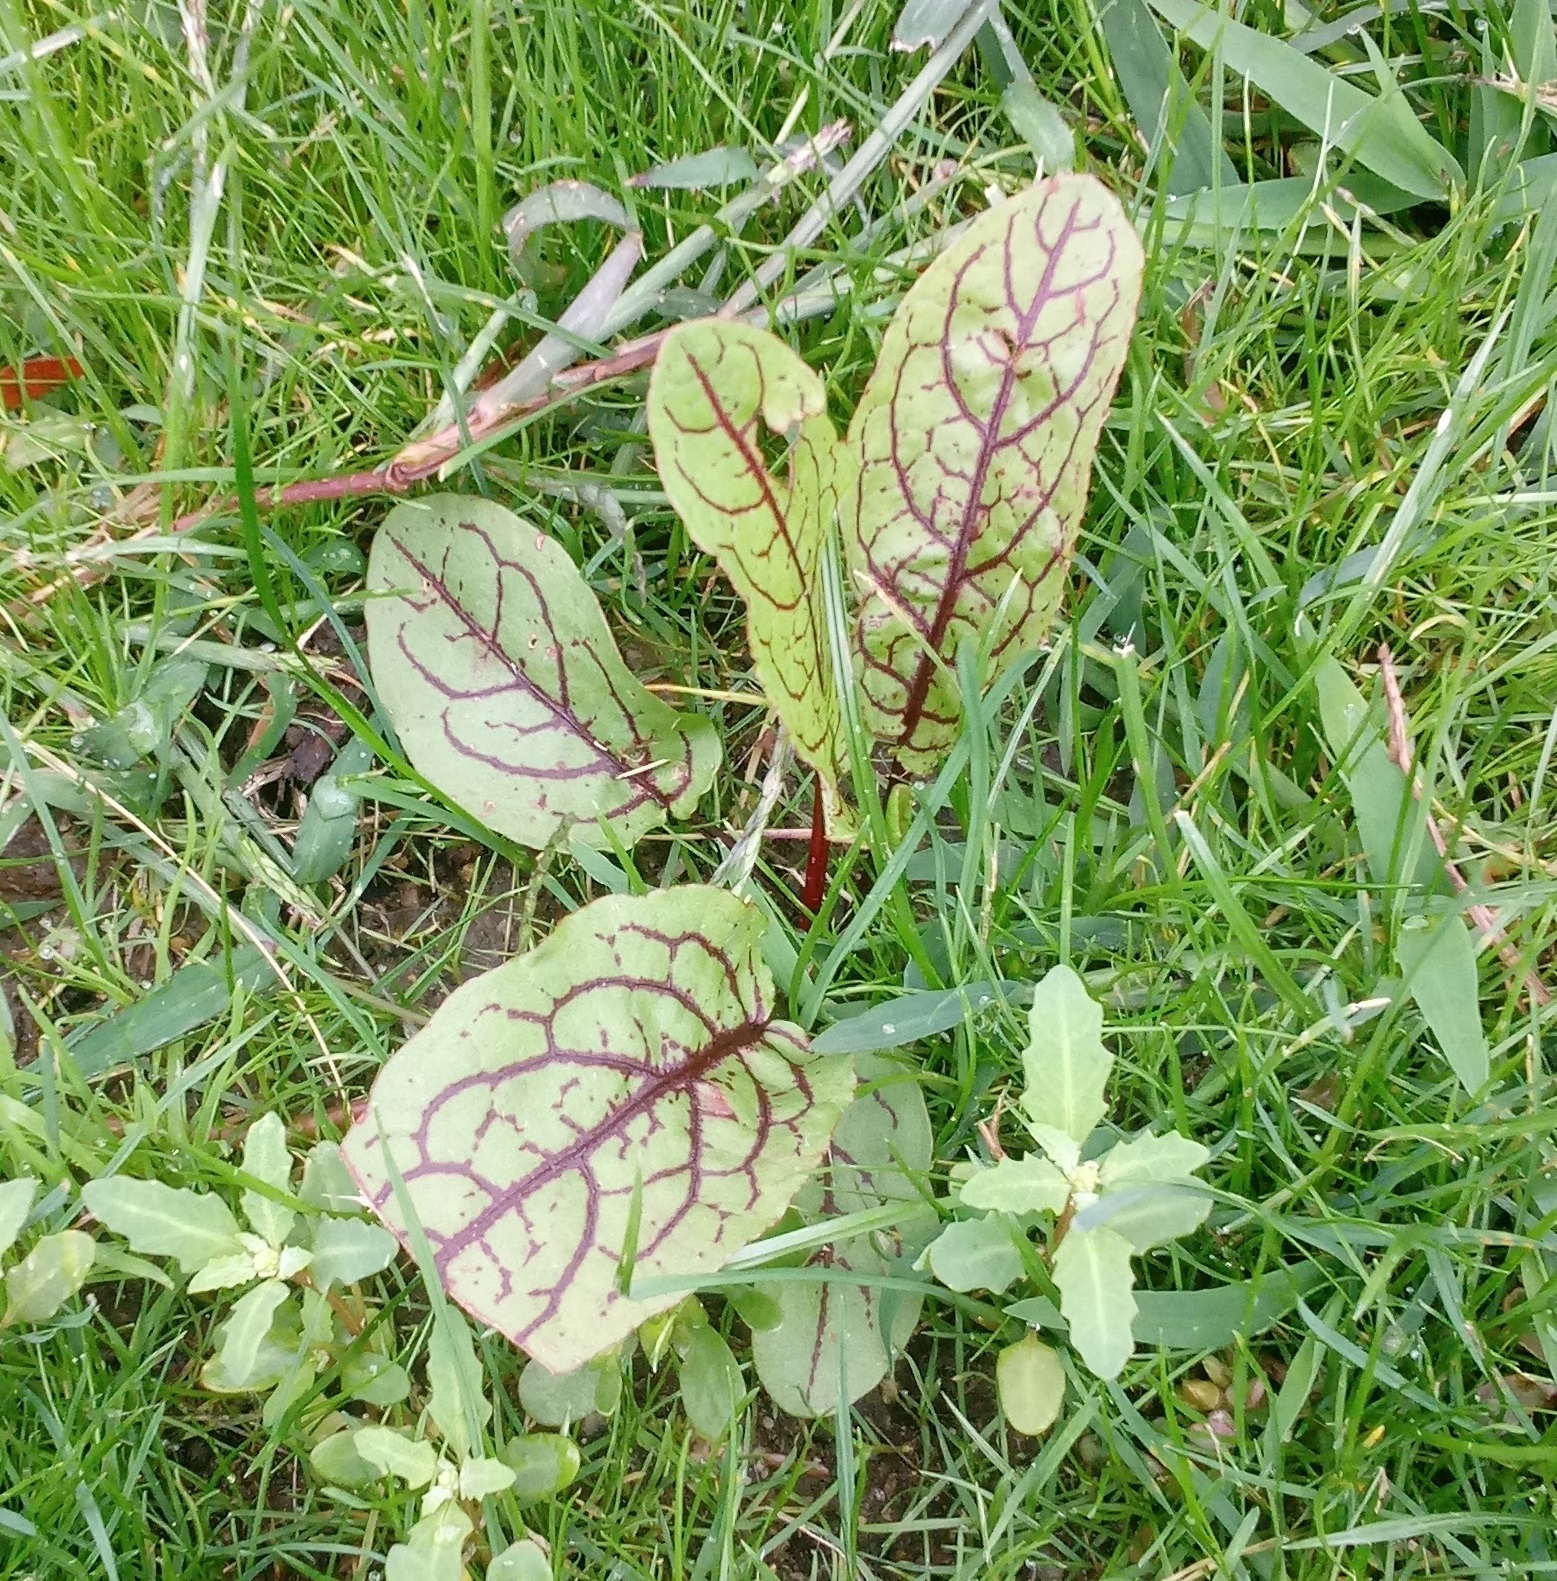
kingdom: Plantae
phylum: Tracheophyta
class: Magnoliopsida
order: Asterales
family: Asteraceae
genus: Hieracium
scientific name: Hieracium venosum
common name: Rattlesnake hawkweed
